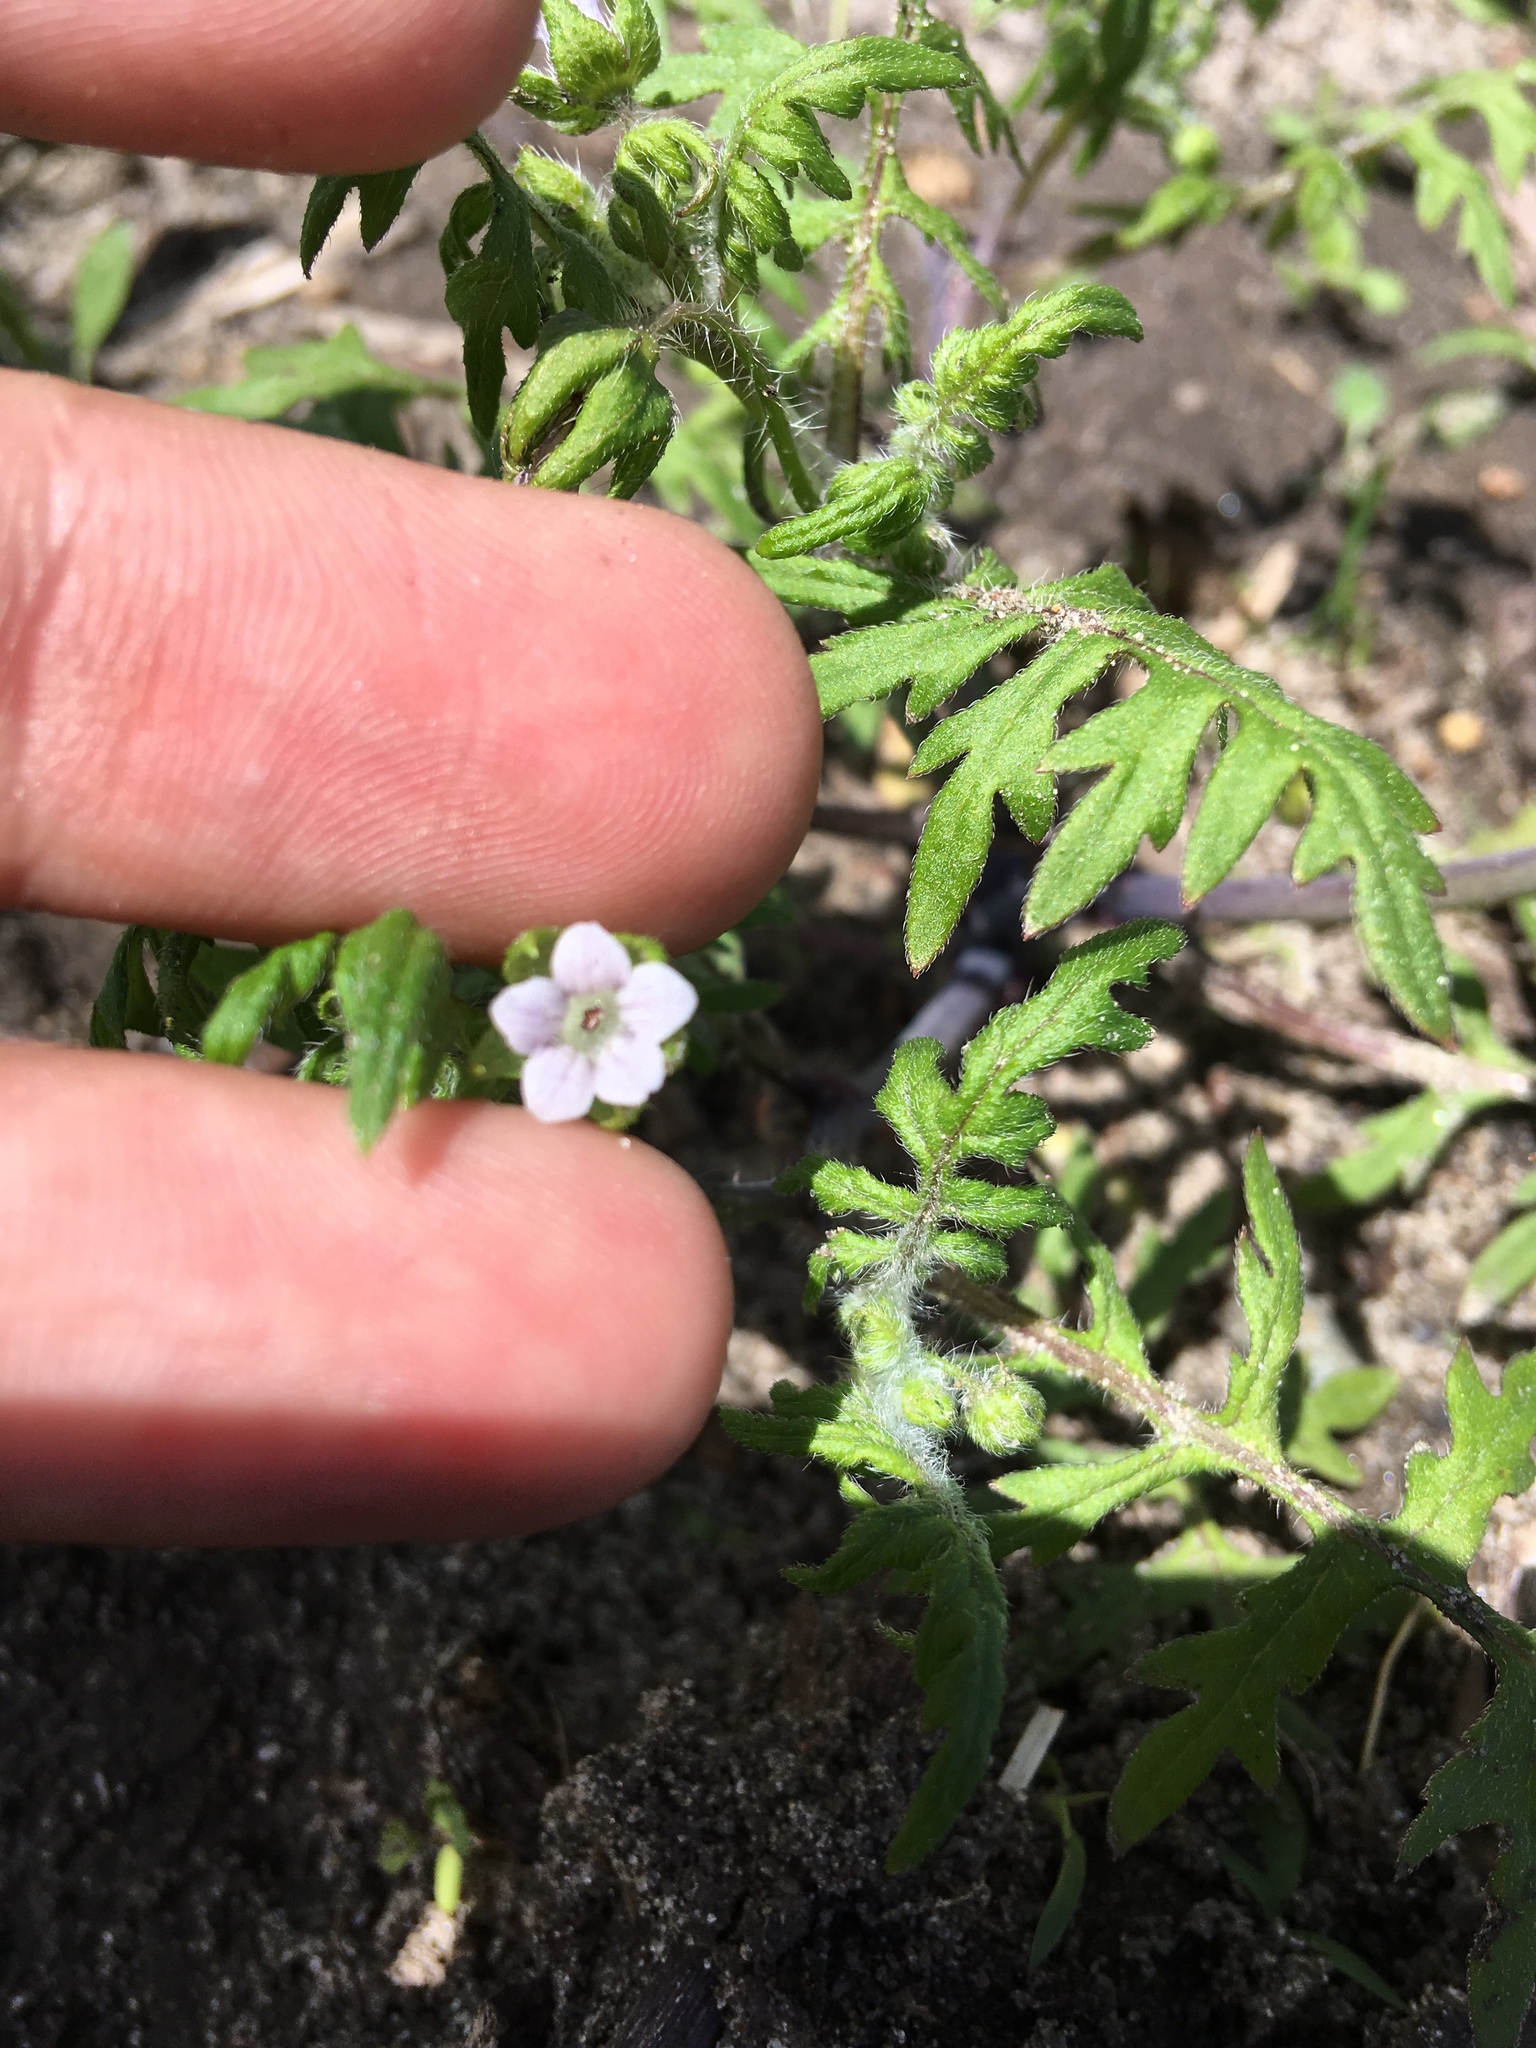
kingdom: Plantae
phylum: Tracheophyta
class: Magnoliopsida
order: Boraginales
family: Hydrophyllaceae
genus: Ellisia
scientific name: Ellisia nyctelea
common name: Aunt lucy
